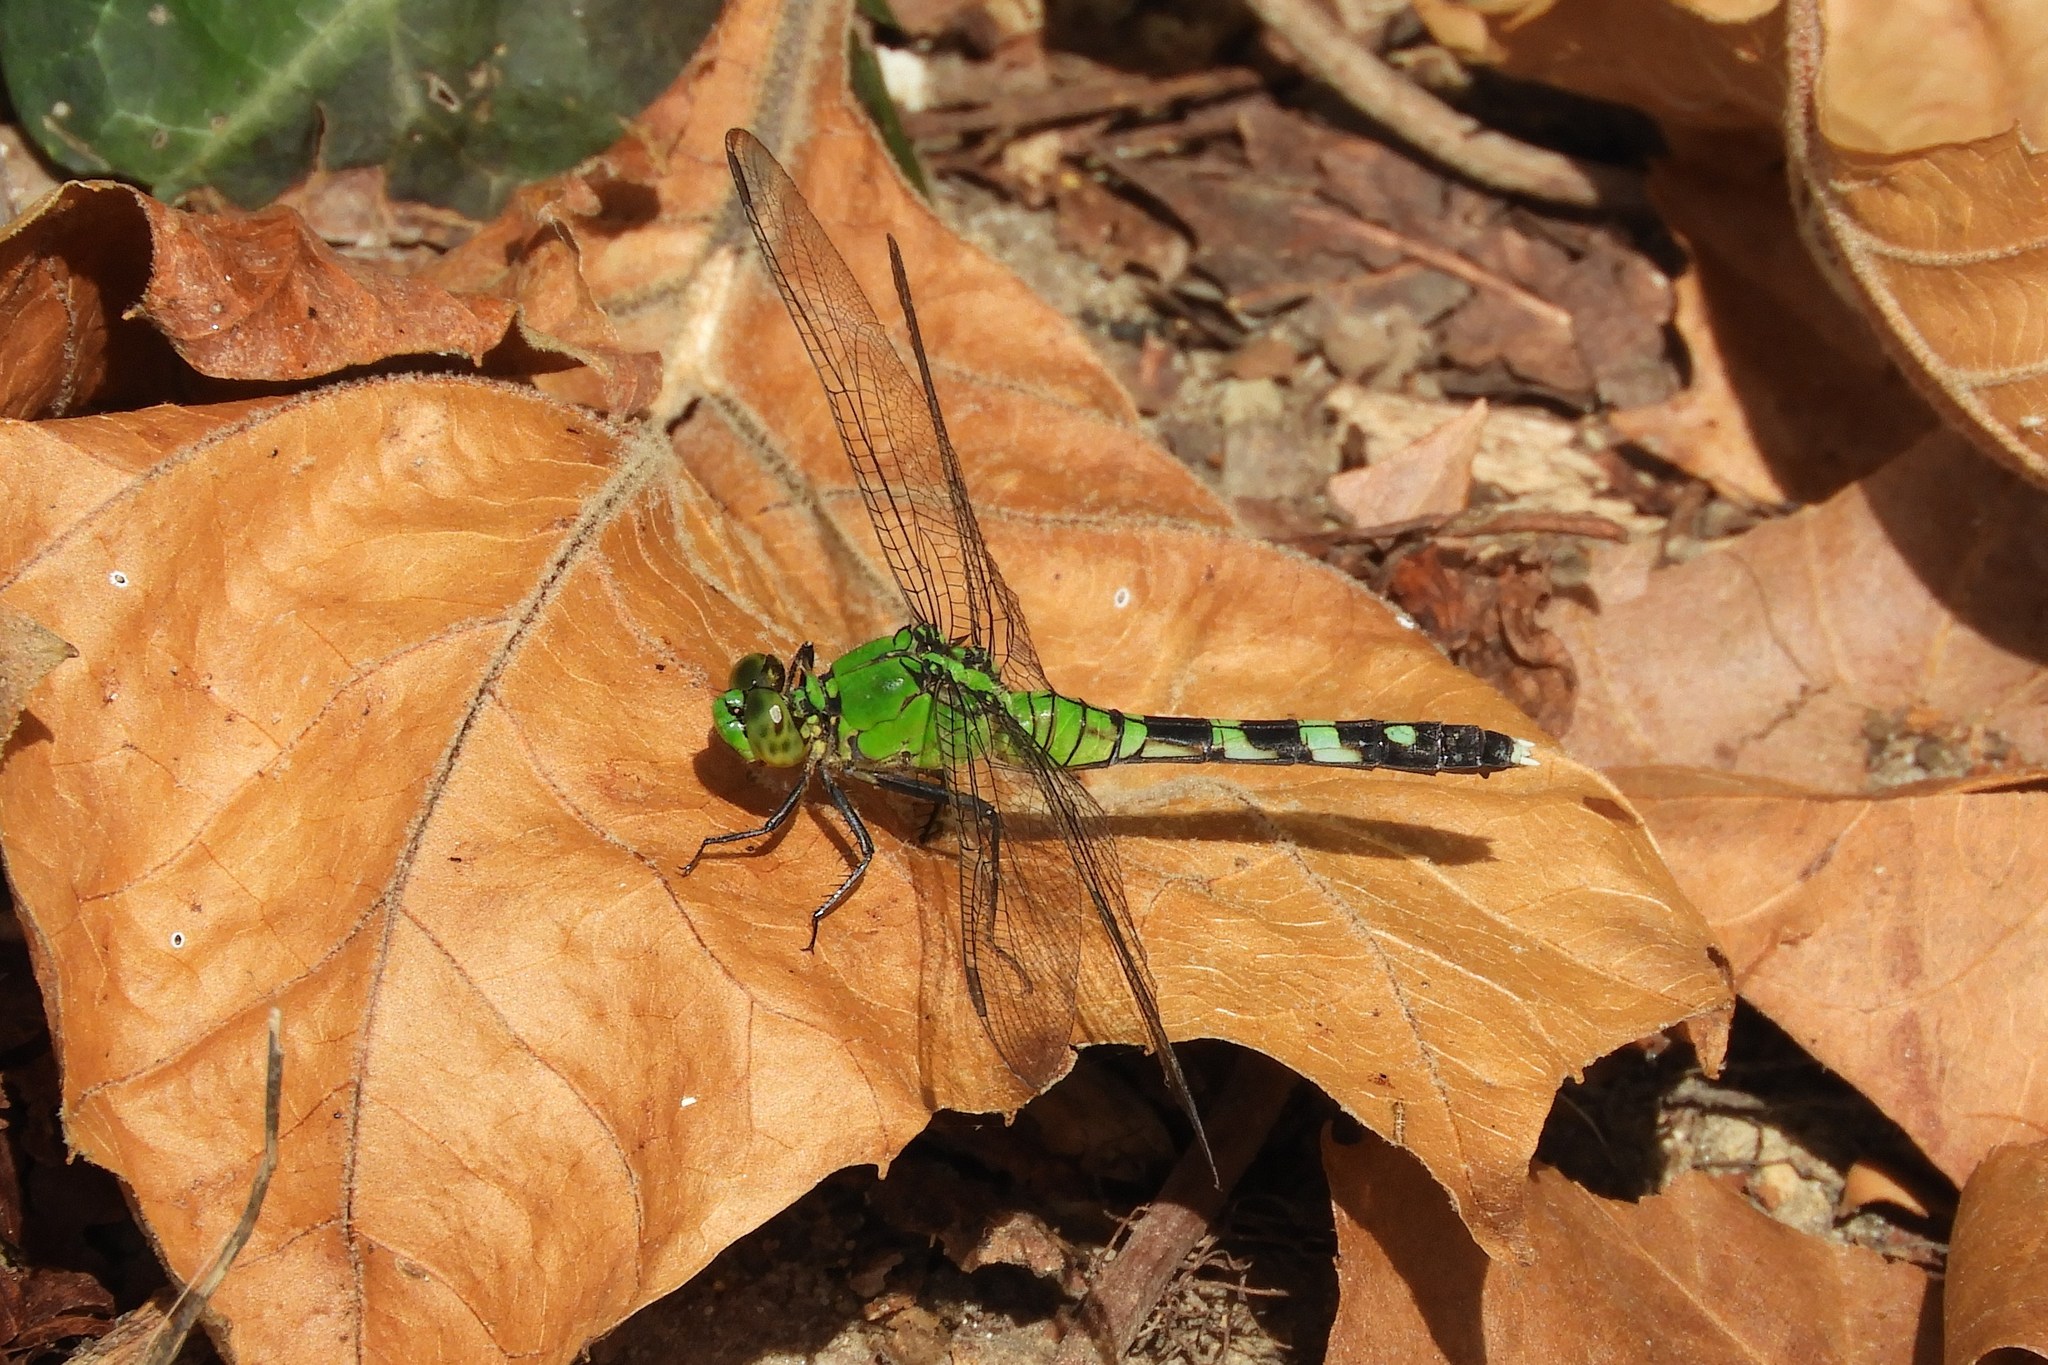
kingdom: Animalia
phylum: Arthropoda
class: Insecta
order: Odonata
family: Libellulidae
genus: Erythemis
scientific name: Erythemis simplicicollis
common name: Eastern pondhawk
